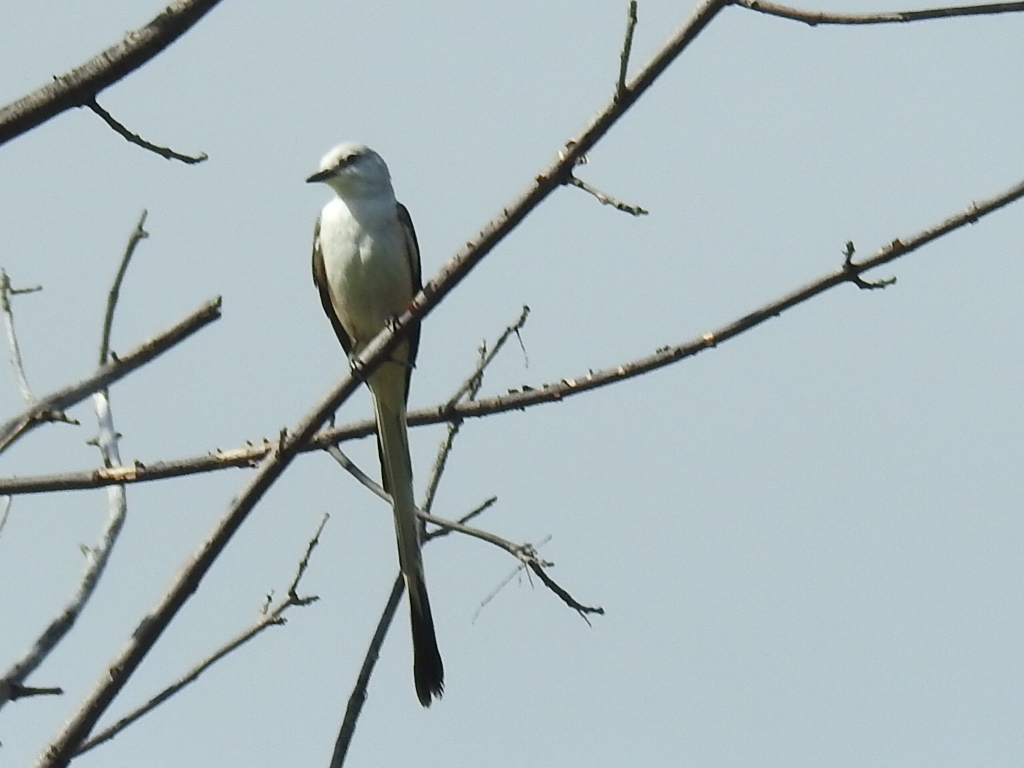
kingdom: Animalia
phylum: Chordata
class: Aves
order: Passeriformes
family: Tyrannidae
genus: Tyrannus
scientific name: Tyrannus forficatus
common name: Scissor-tailed flycatcher
